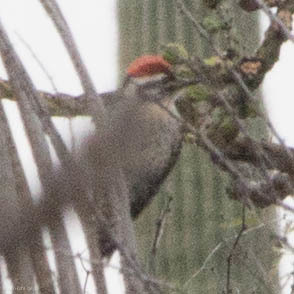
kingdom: Animalia
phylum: Chordata
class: Aves
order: Piciformes
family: Picidae
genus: Dryobates
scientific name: Dryobates scalaris
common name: Ladder-backed woodpecker
